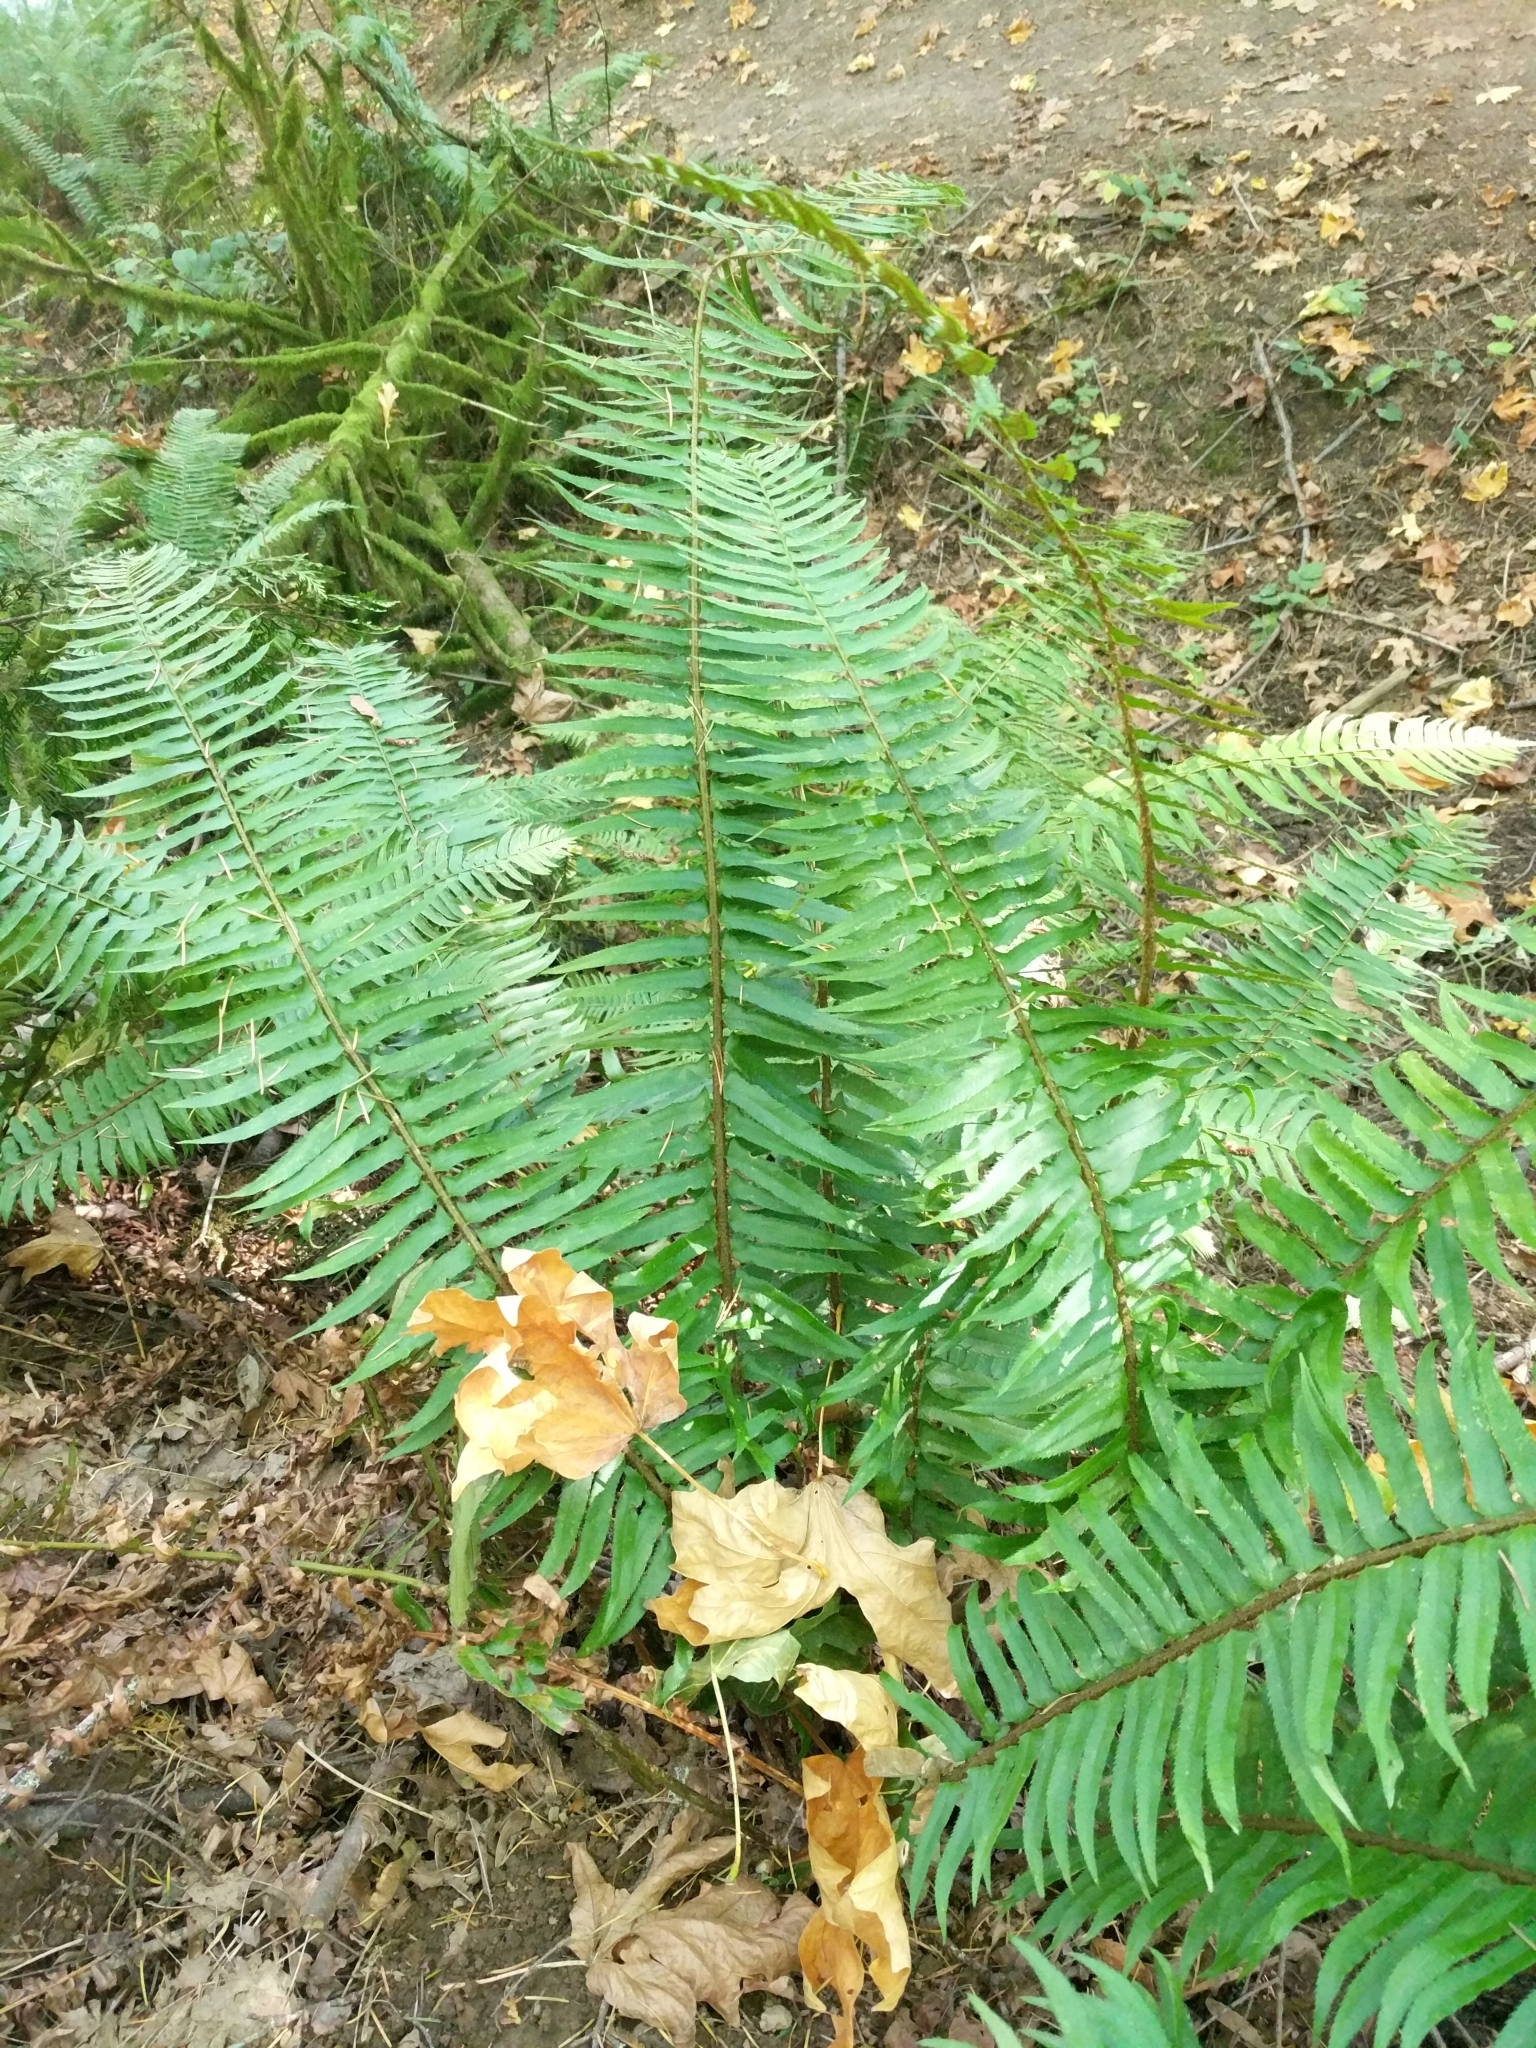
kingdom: Plantae
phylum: Tracheophyta
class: Polypodiopsida
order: Polypodiales
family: Dryopteridaceae
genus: Polystichum
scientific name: Polystichum munitum
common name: Western sword-fern
